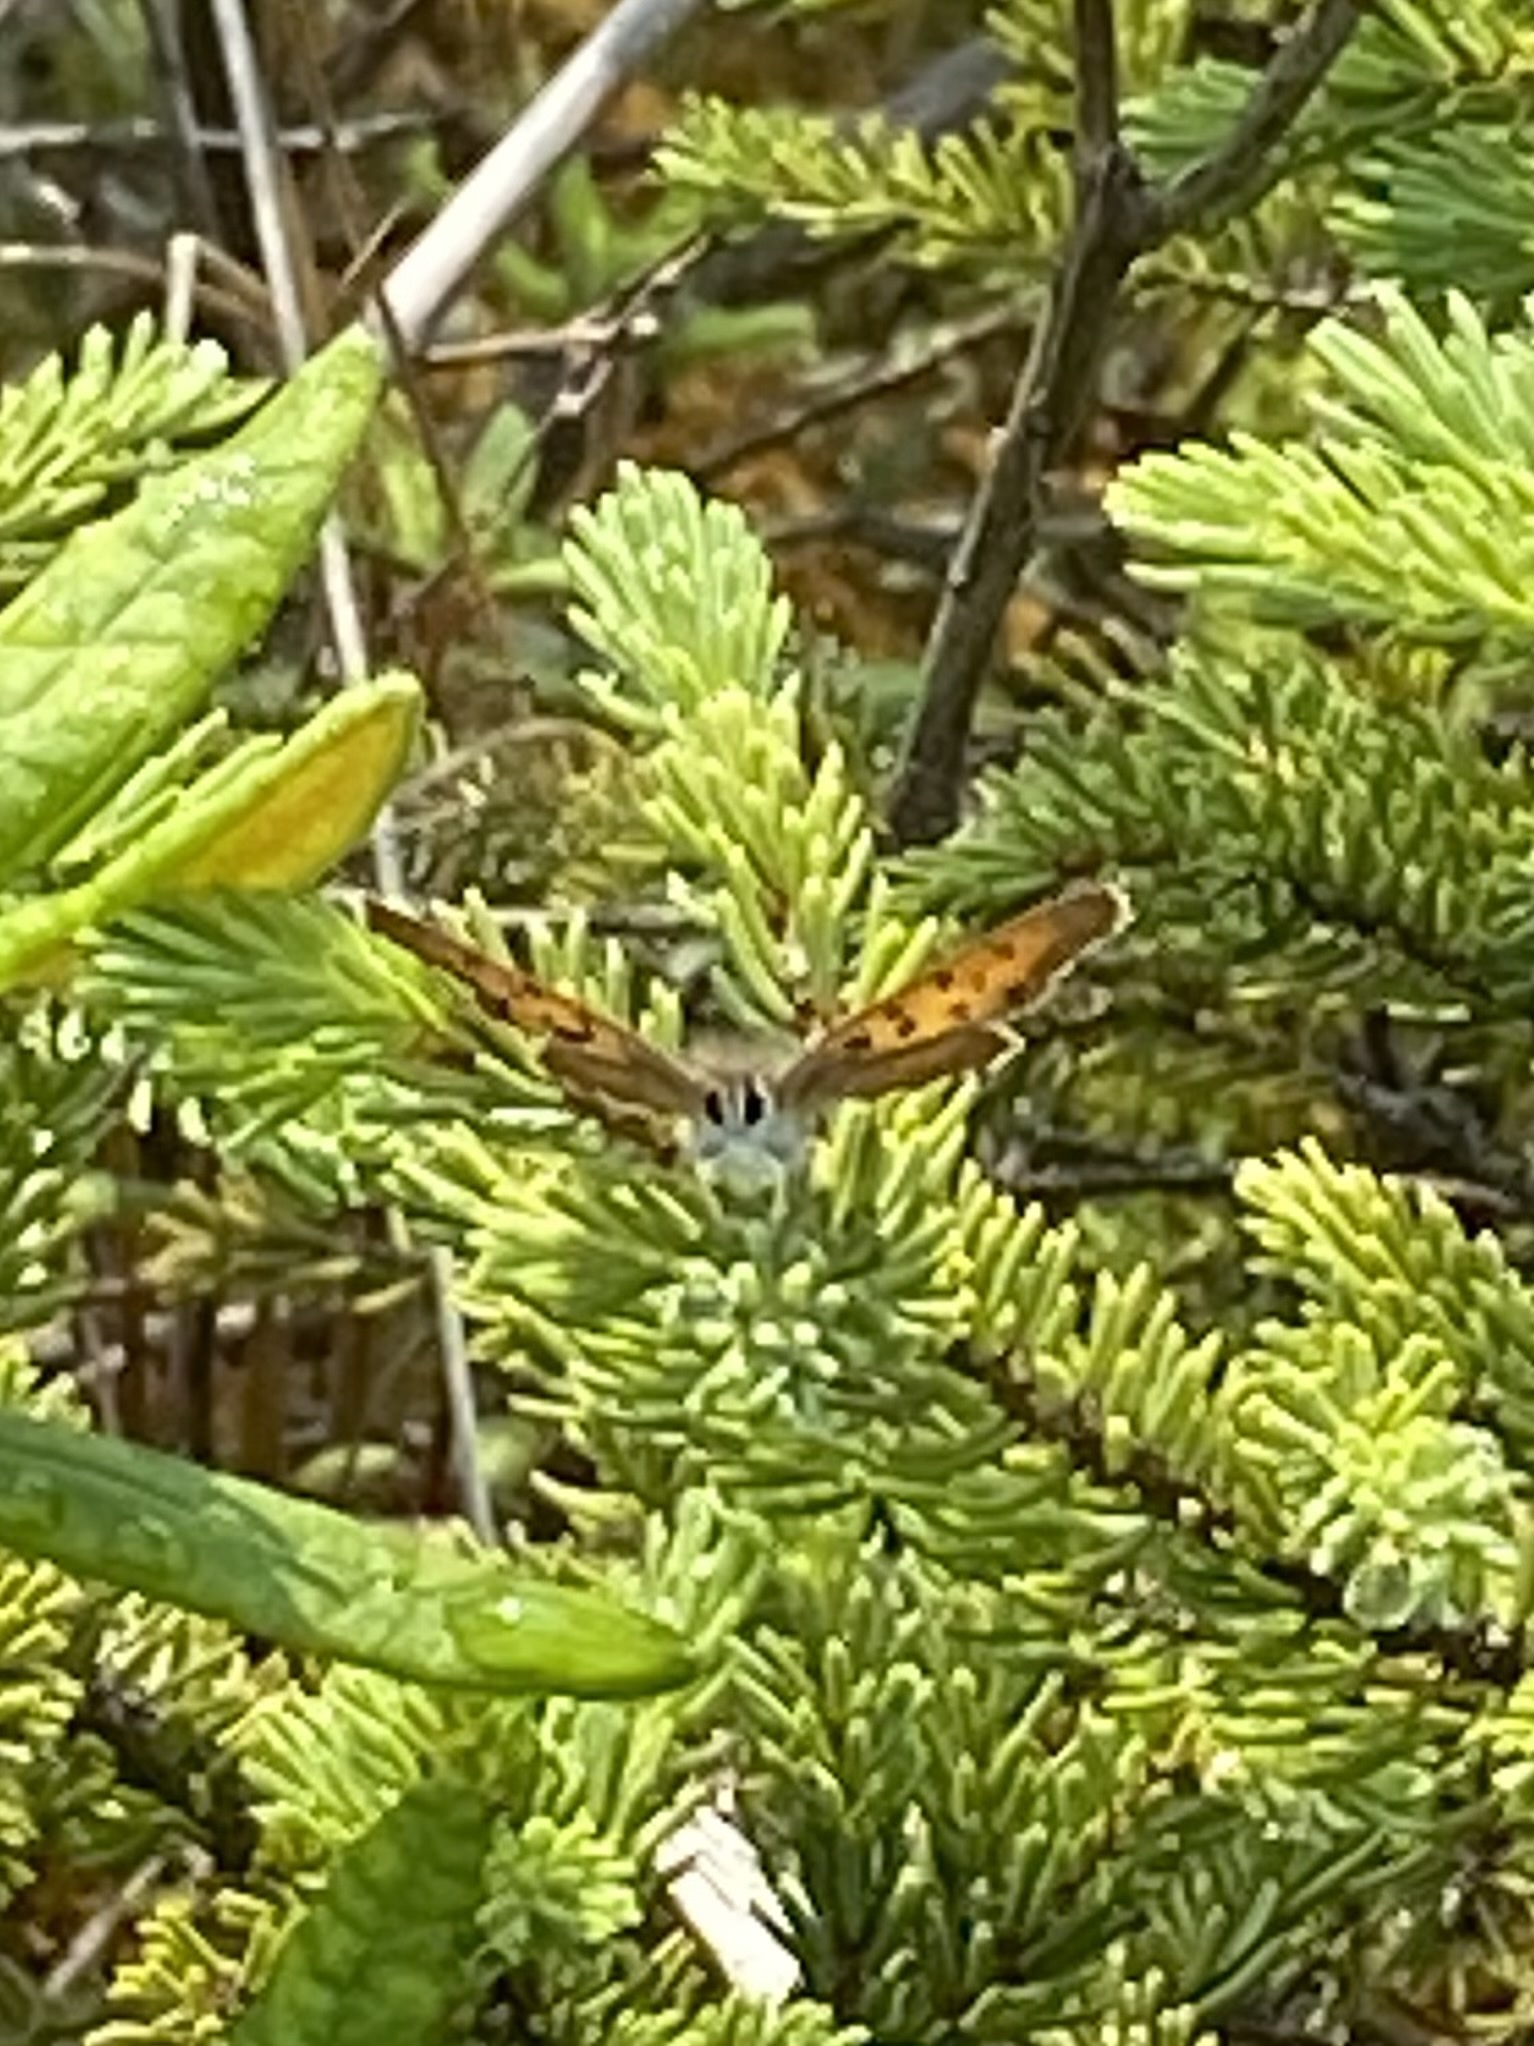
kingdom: Animalia
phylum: Arthropoda
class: Insecta
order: Lepidoptera
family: Lycaenidae
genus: Tharsalea
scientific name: Tharsalea dorcas
